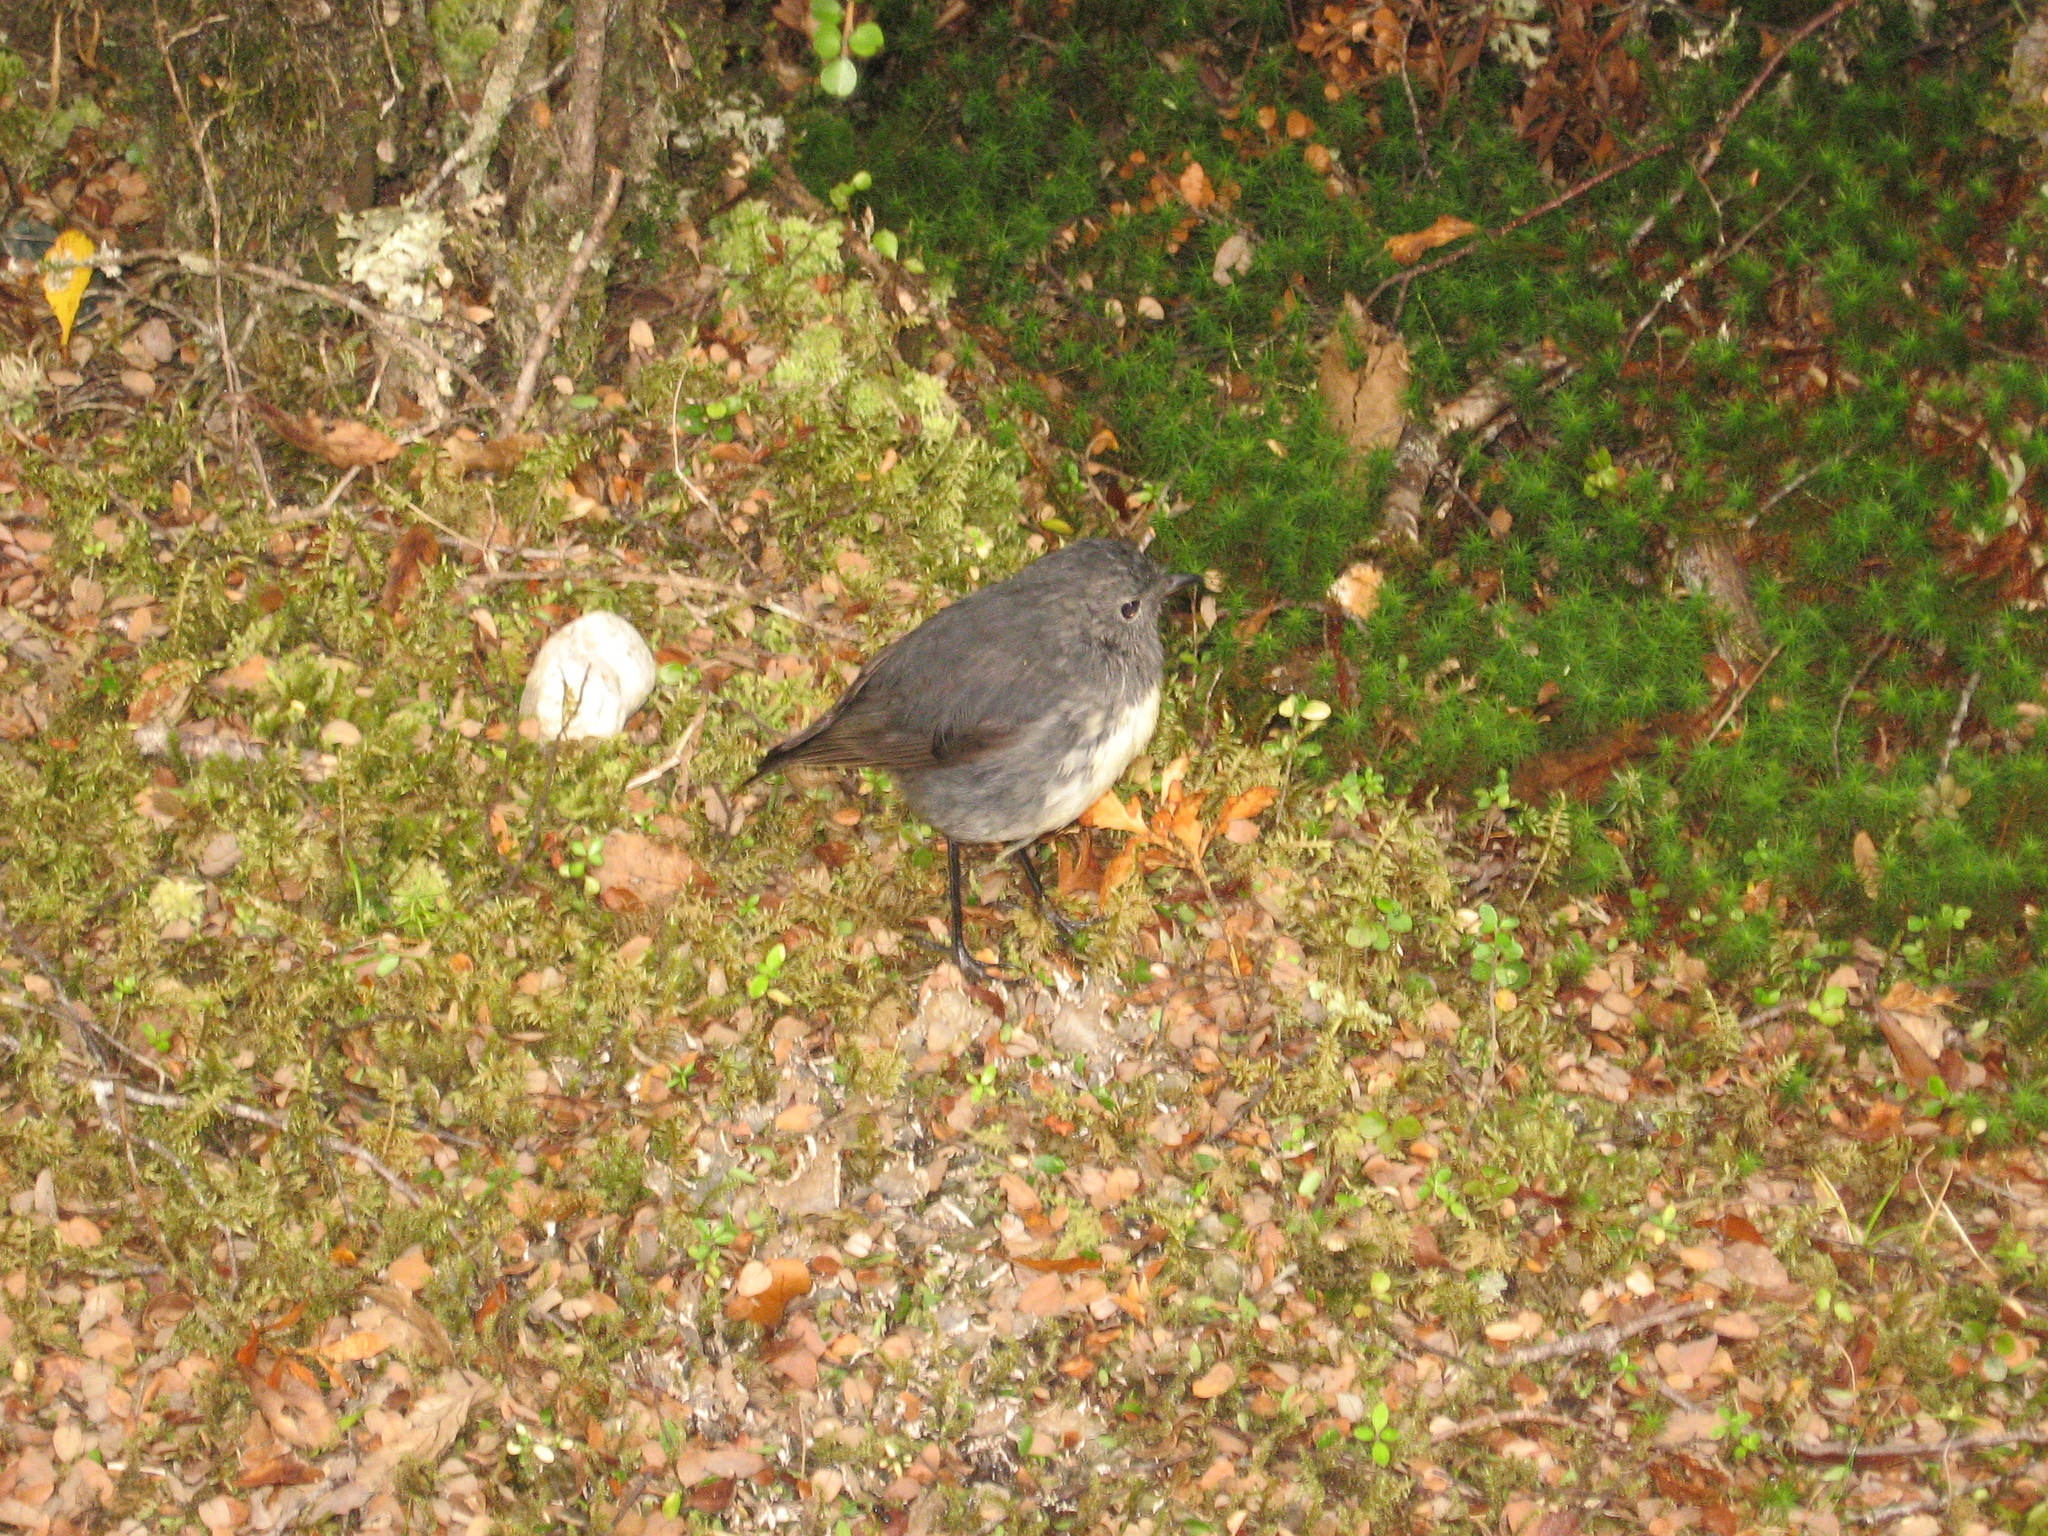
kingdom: Animalia
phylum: Chordata
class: Aves
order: Passeriformes
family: Petroicidae
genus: Petroica
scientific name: Petroica australis
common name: New zealand robin
